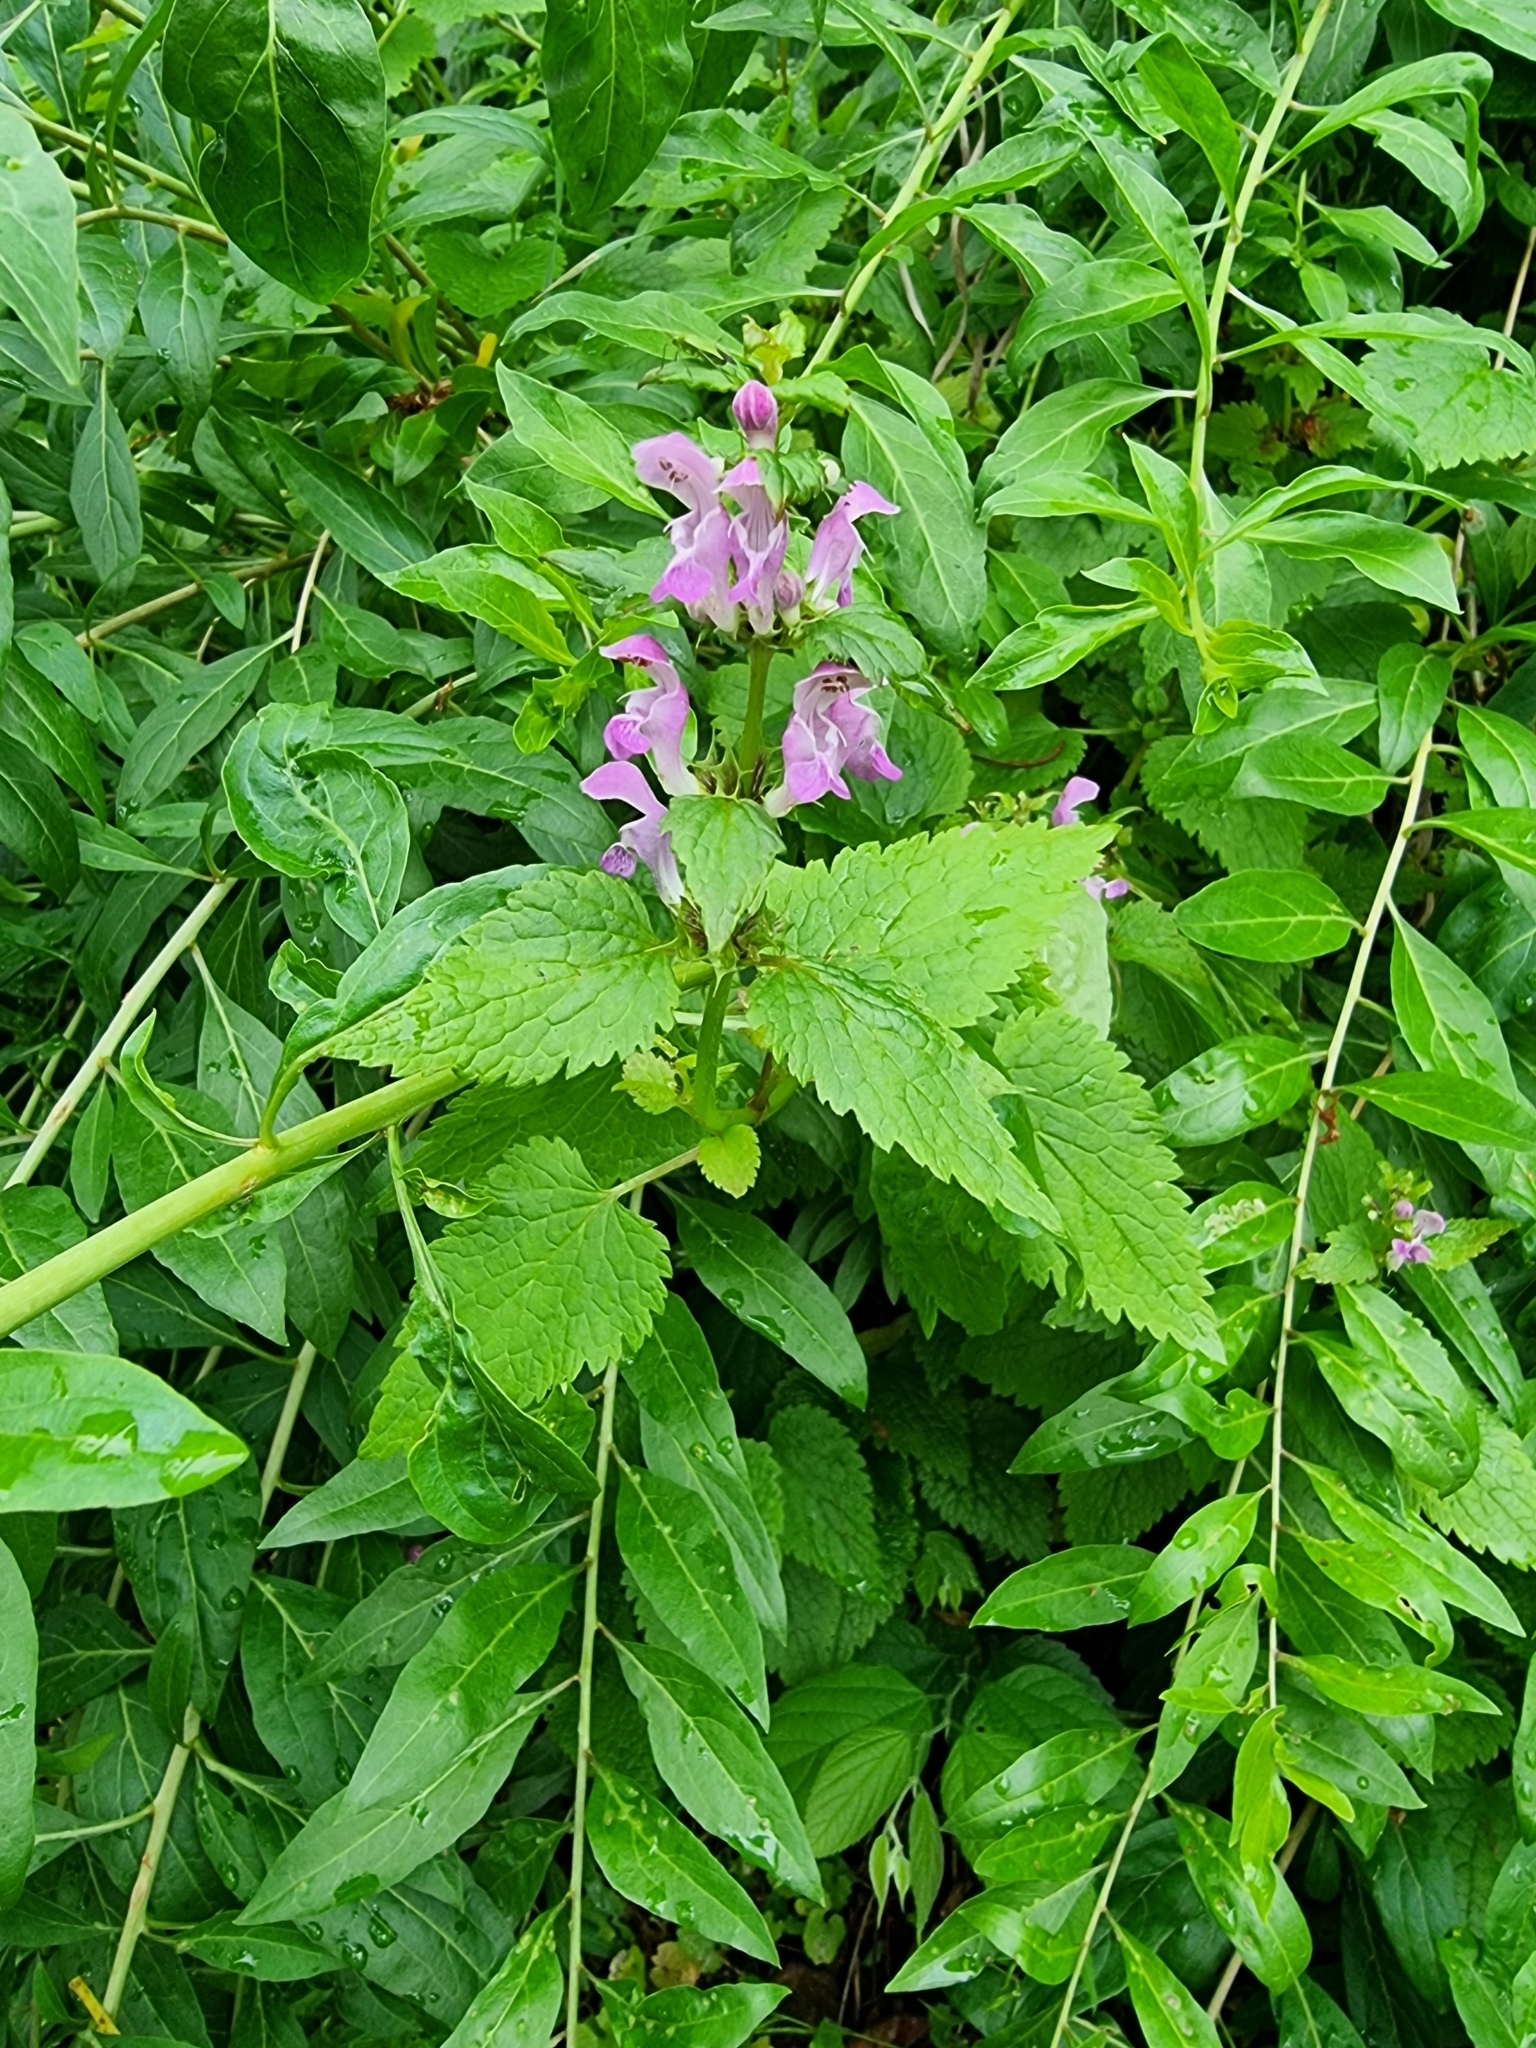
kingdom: Plantae
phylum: Tracheophyta
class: Magnoliopsida
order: Lamiales
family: Lamiaceae
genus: Lamium
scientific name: Lamium maculatum
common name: Spotted dead-nettle
